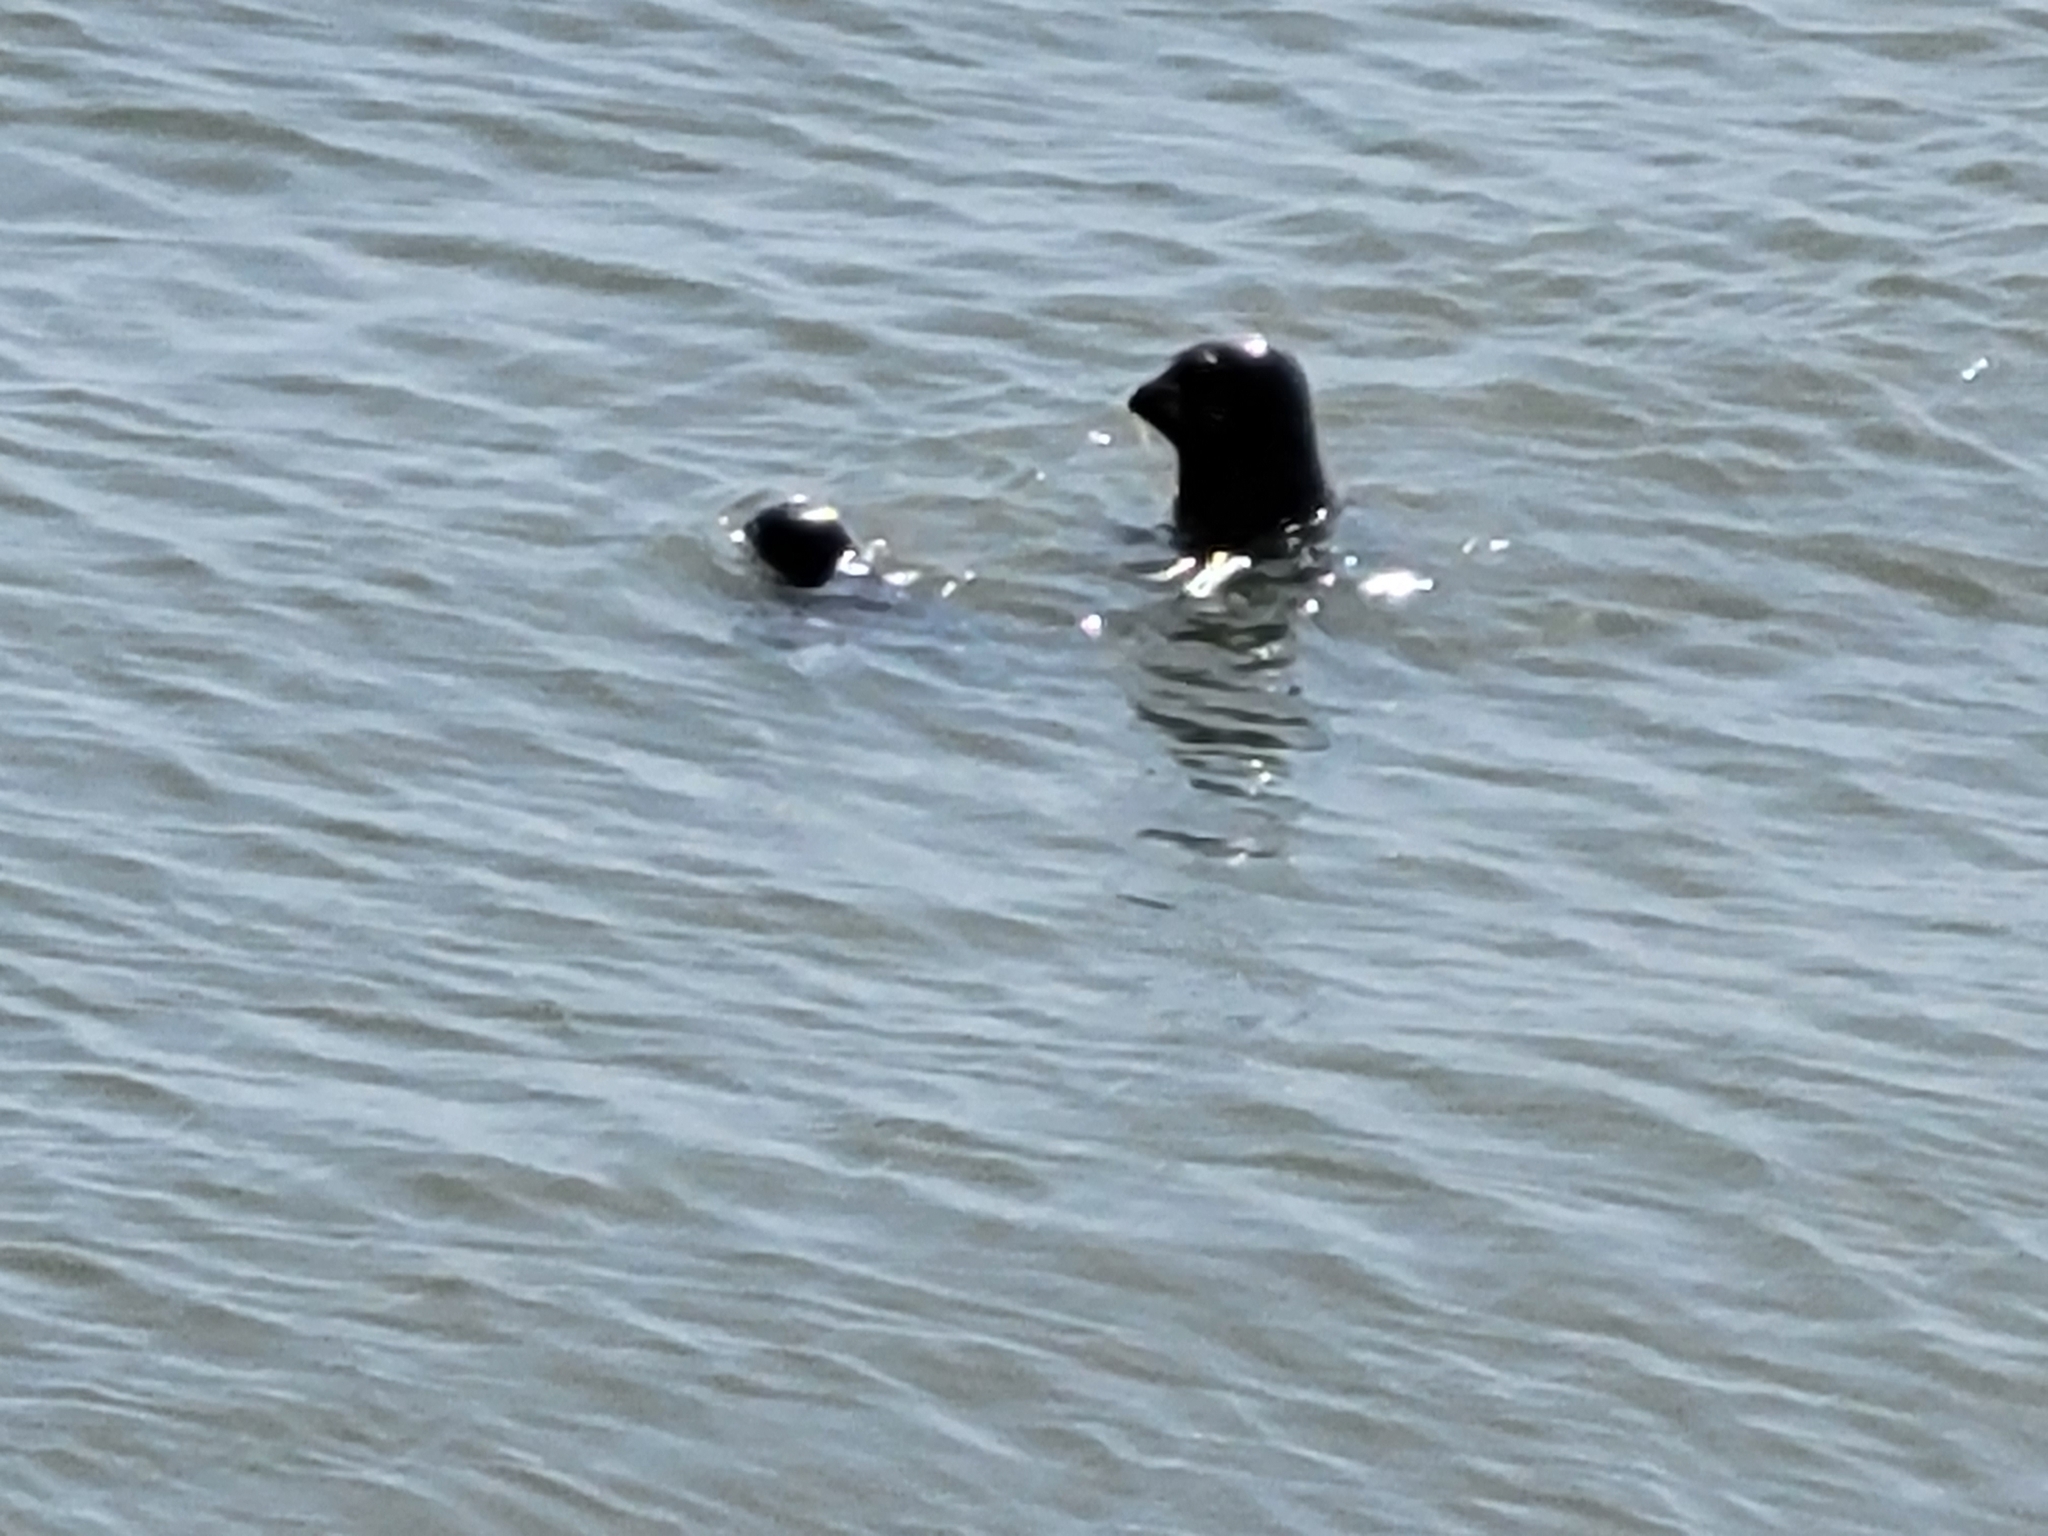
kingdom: Animalia
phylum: Chordata
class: Mammalia
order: Carnivora
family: Phocidae
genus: Phoca
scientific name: Phoca vitulina
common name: Harbor seal
